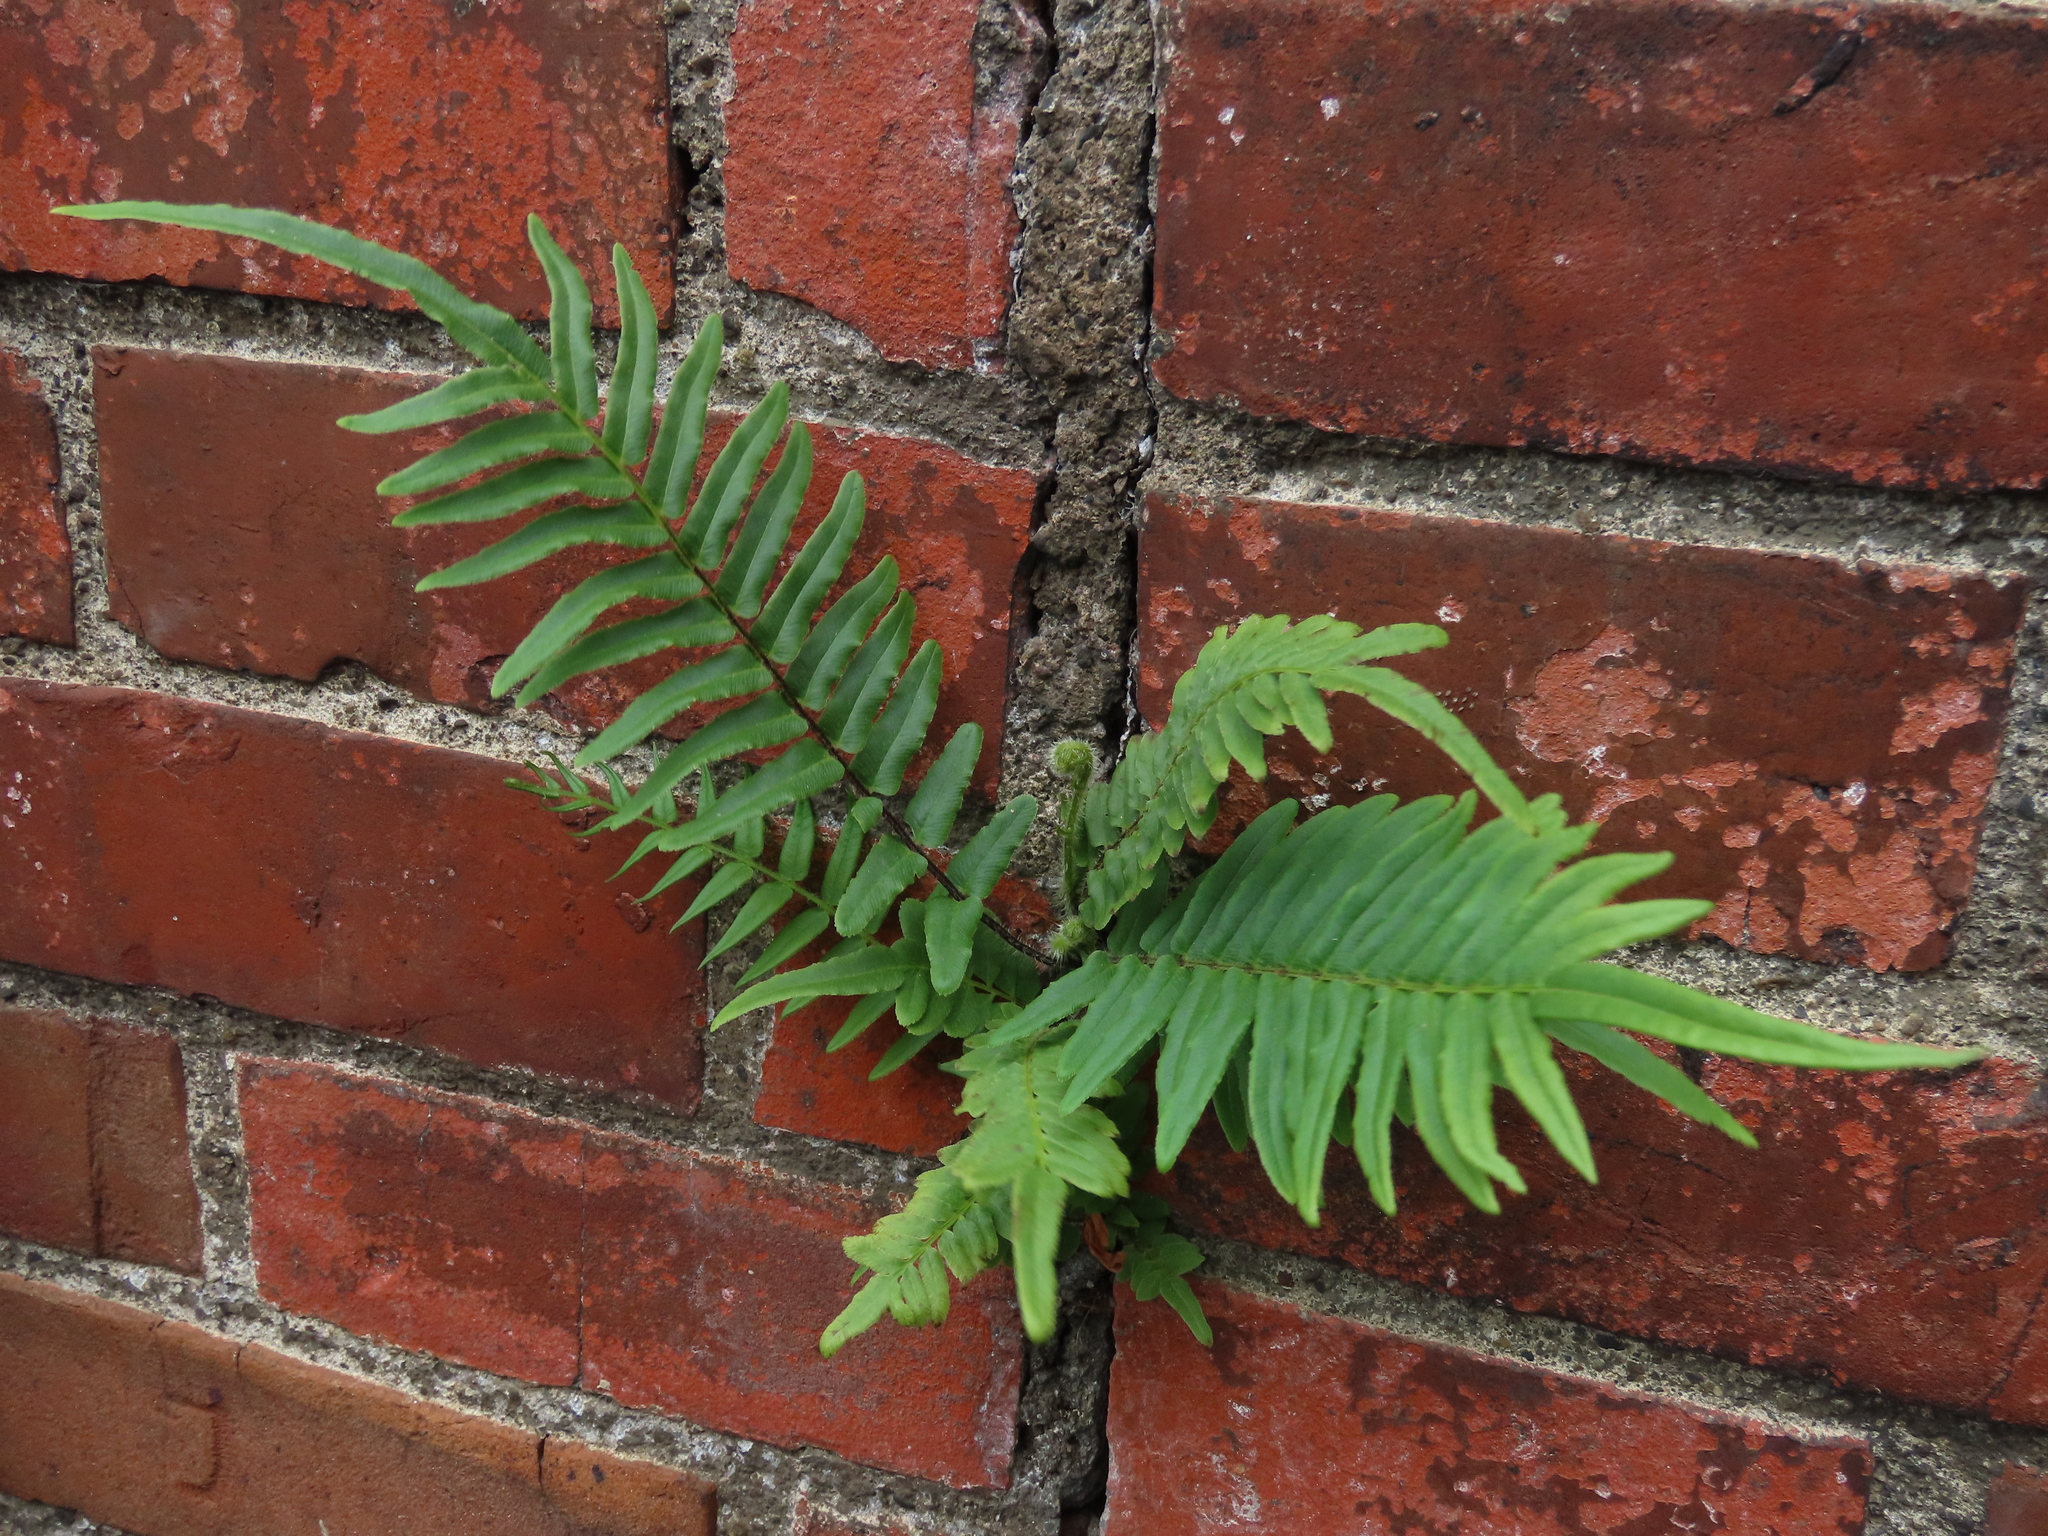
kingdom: Plantae
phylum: Tracheophyta
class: Polypodiopsida
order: Polypodiales
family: Pteridaceae
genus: Pteris
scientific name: Pteris vittata
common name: Ladder brake
